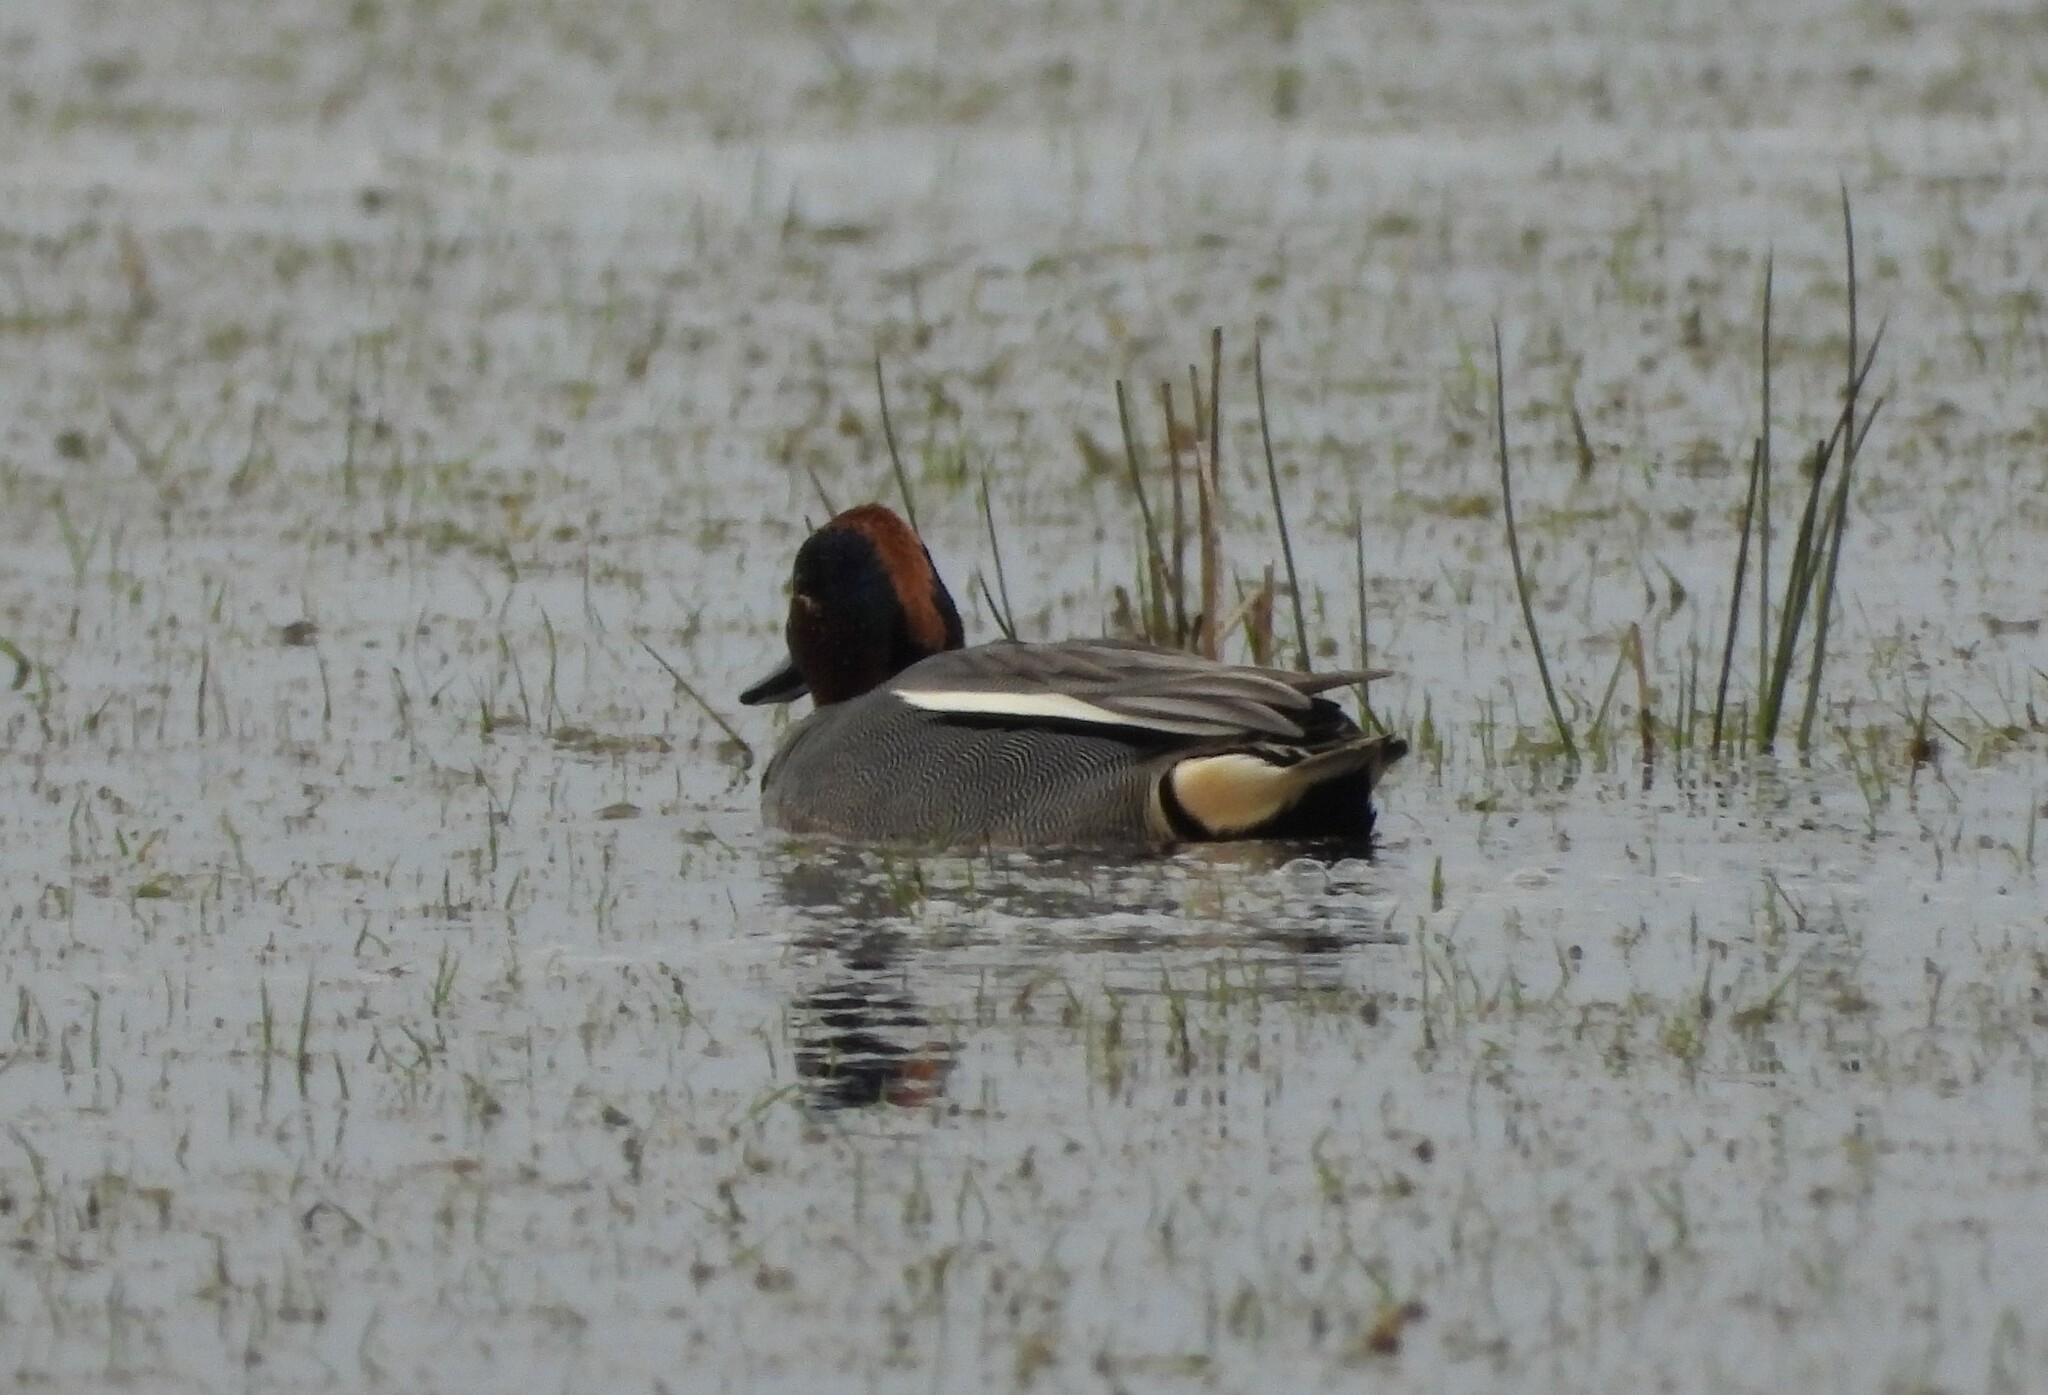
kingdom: Animalia
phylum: Chordata
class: Aves
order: Anseriformes
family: Anatidae
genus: Anas
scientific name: Anas crecca
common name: Eurasian teal
